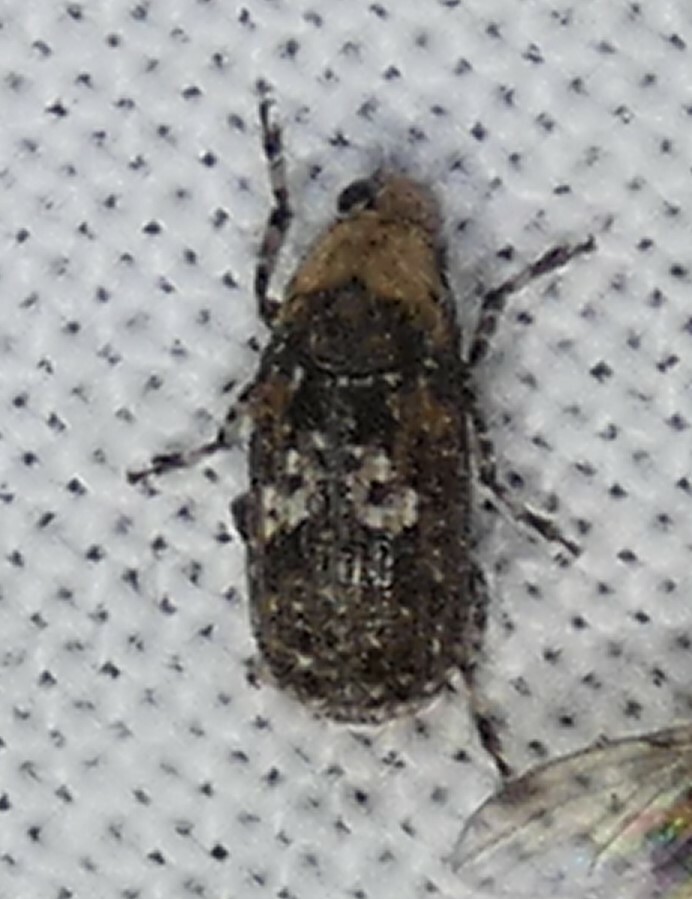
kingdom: Animalia
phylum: Arthropoda
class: Insecta
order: Coleoptera
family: Anthribidae
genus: Euparius
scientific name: Euparius paganus
